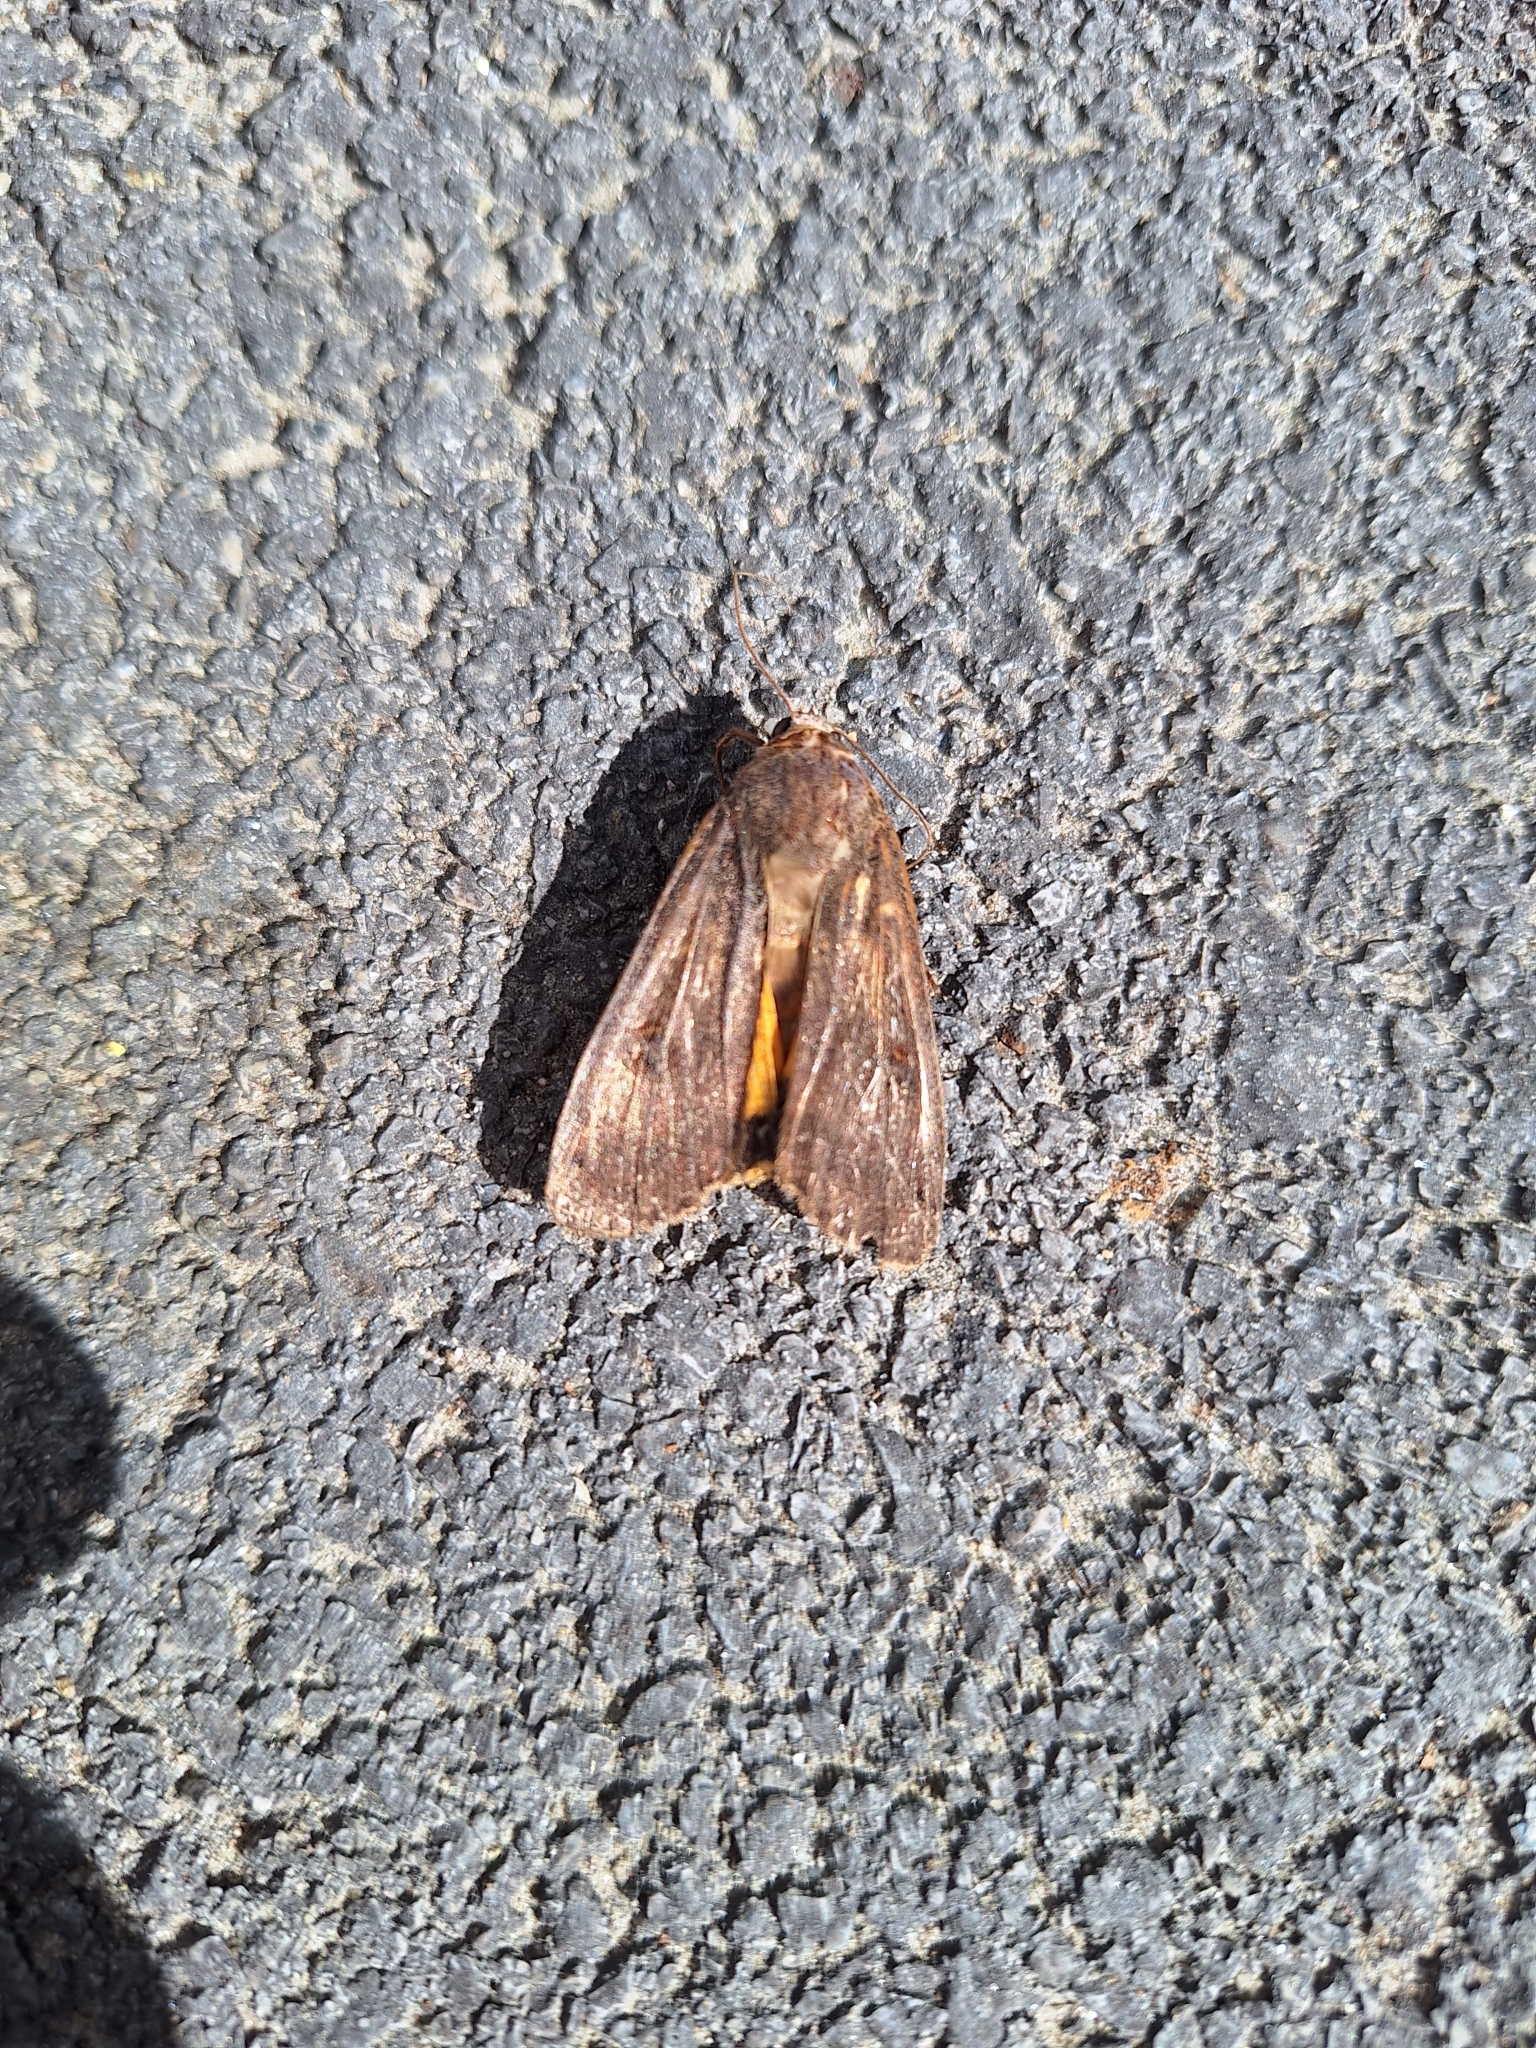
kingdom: Animalia
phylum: Arthropoda
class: Insecta
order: Lepidoptera
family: Noctuidae
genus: Noctua
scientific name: Noctua pronuba
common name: Large yellow underwing
